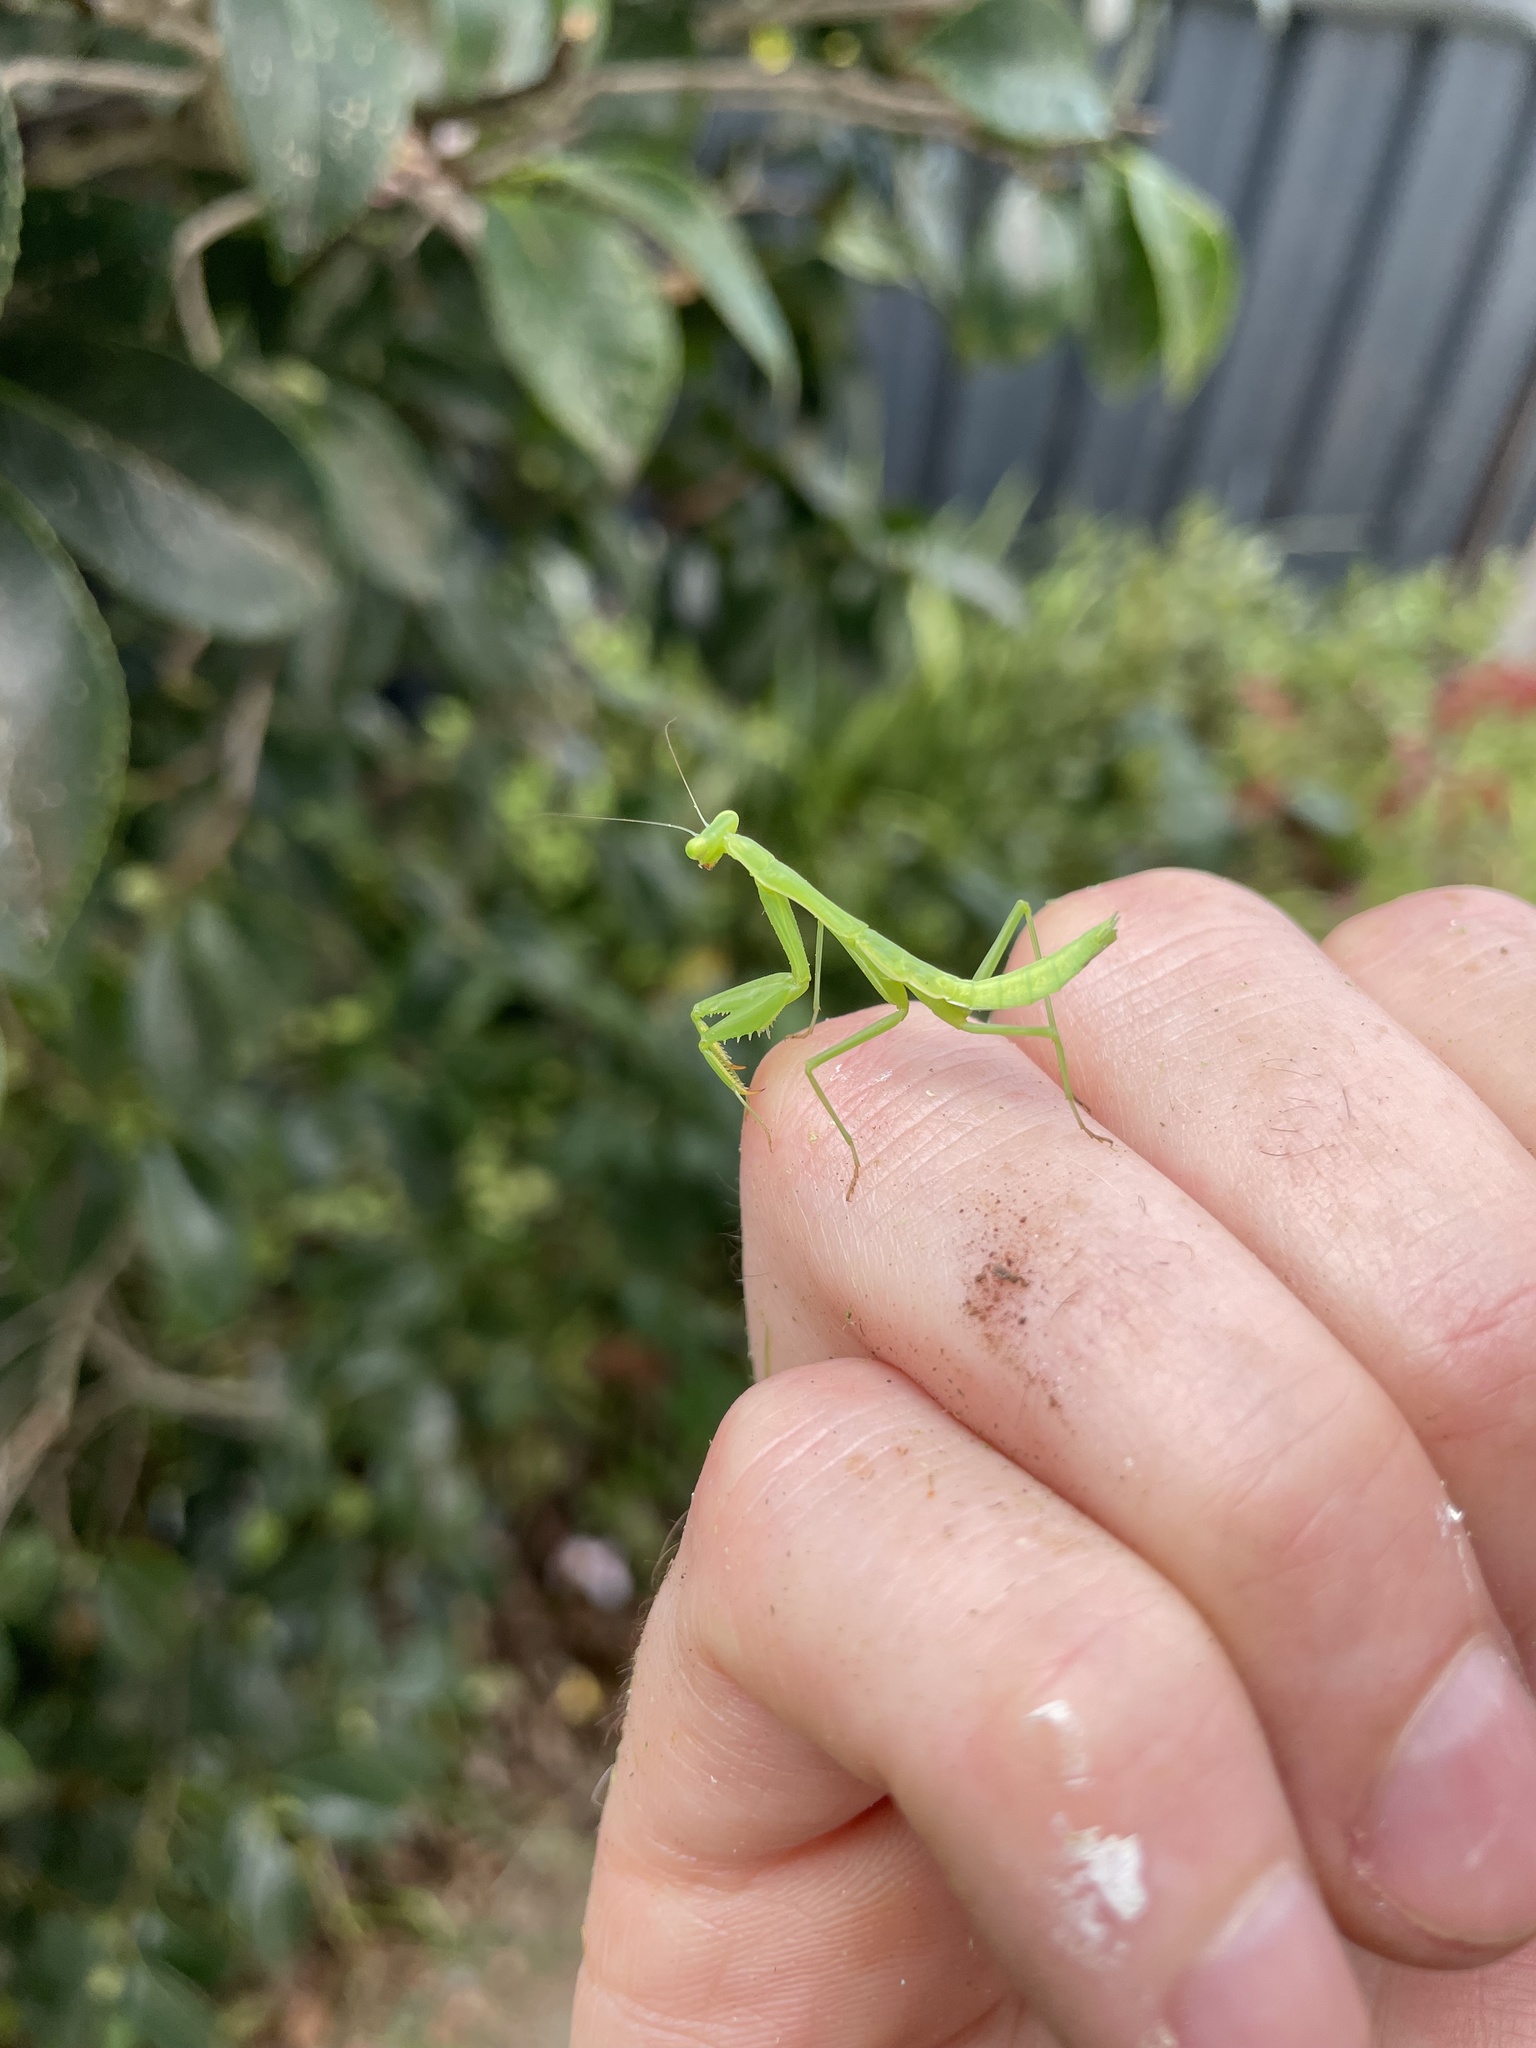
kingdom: Animalia
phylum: Arthropoda
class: Insecta
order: Mantodea
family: Miomantidae
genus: Miomantis
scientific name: Miomantis caffra
